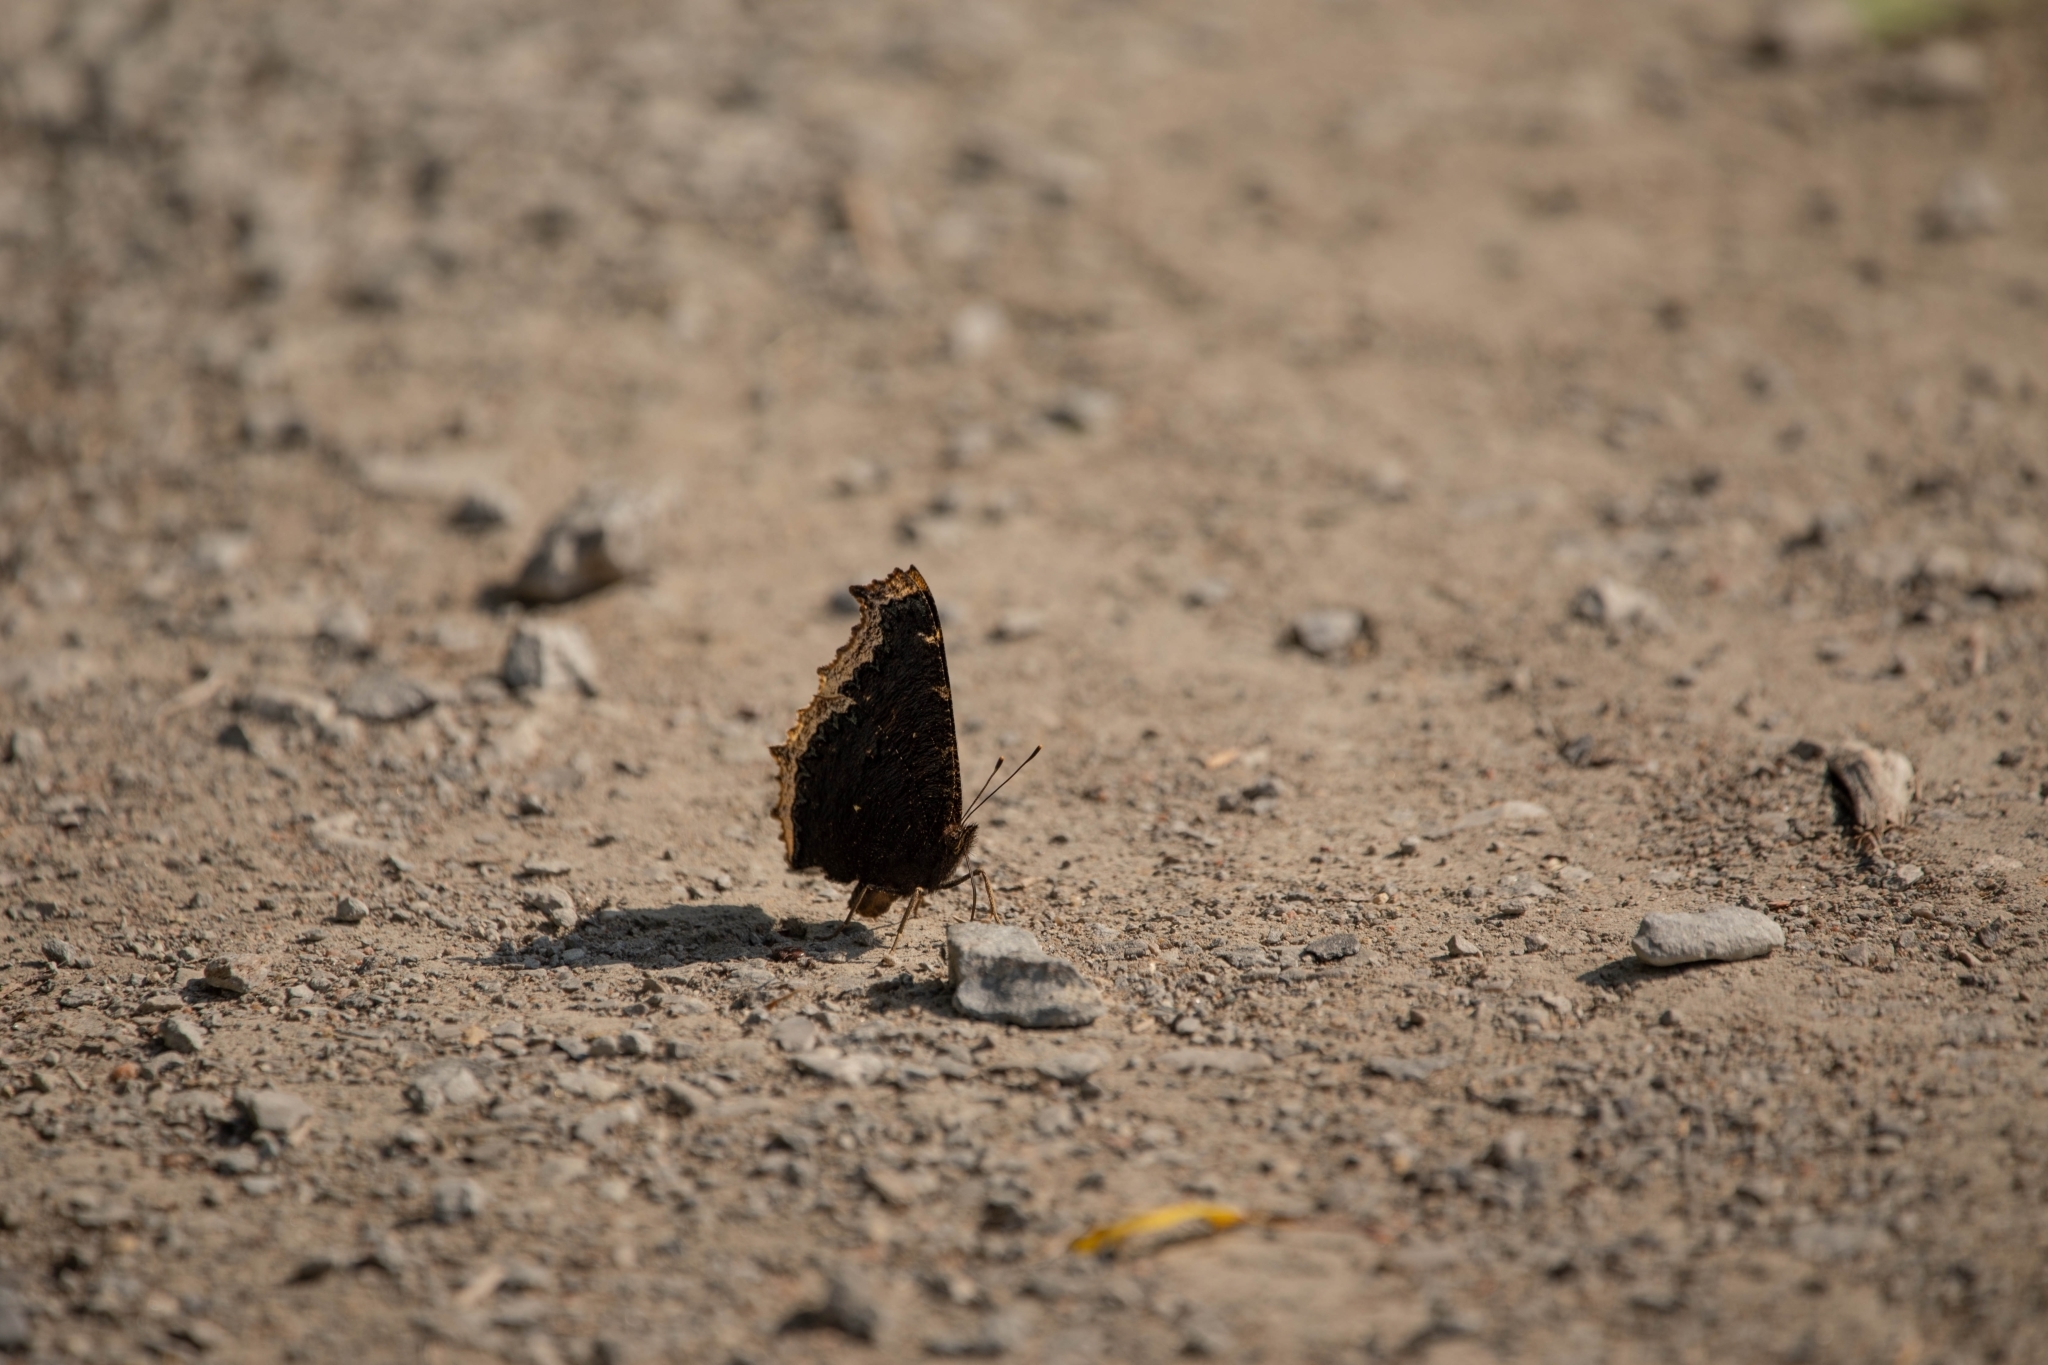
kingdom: Animalia
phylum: Arthropoda
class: Insecta
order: Lepidoptera
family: Nymphalidae
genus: Nymphalis
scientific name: Nymphalis antiopa
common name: Camberwell beauty
